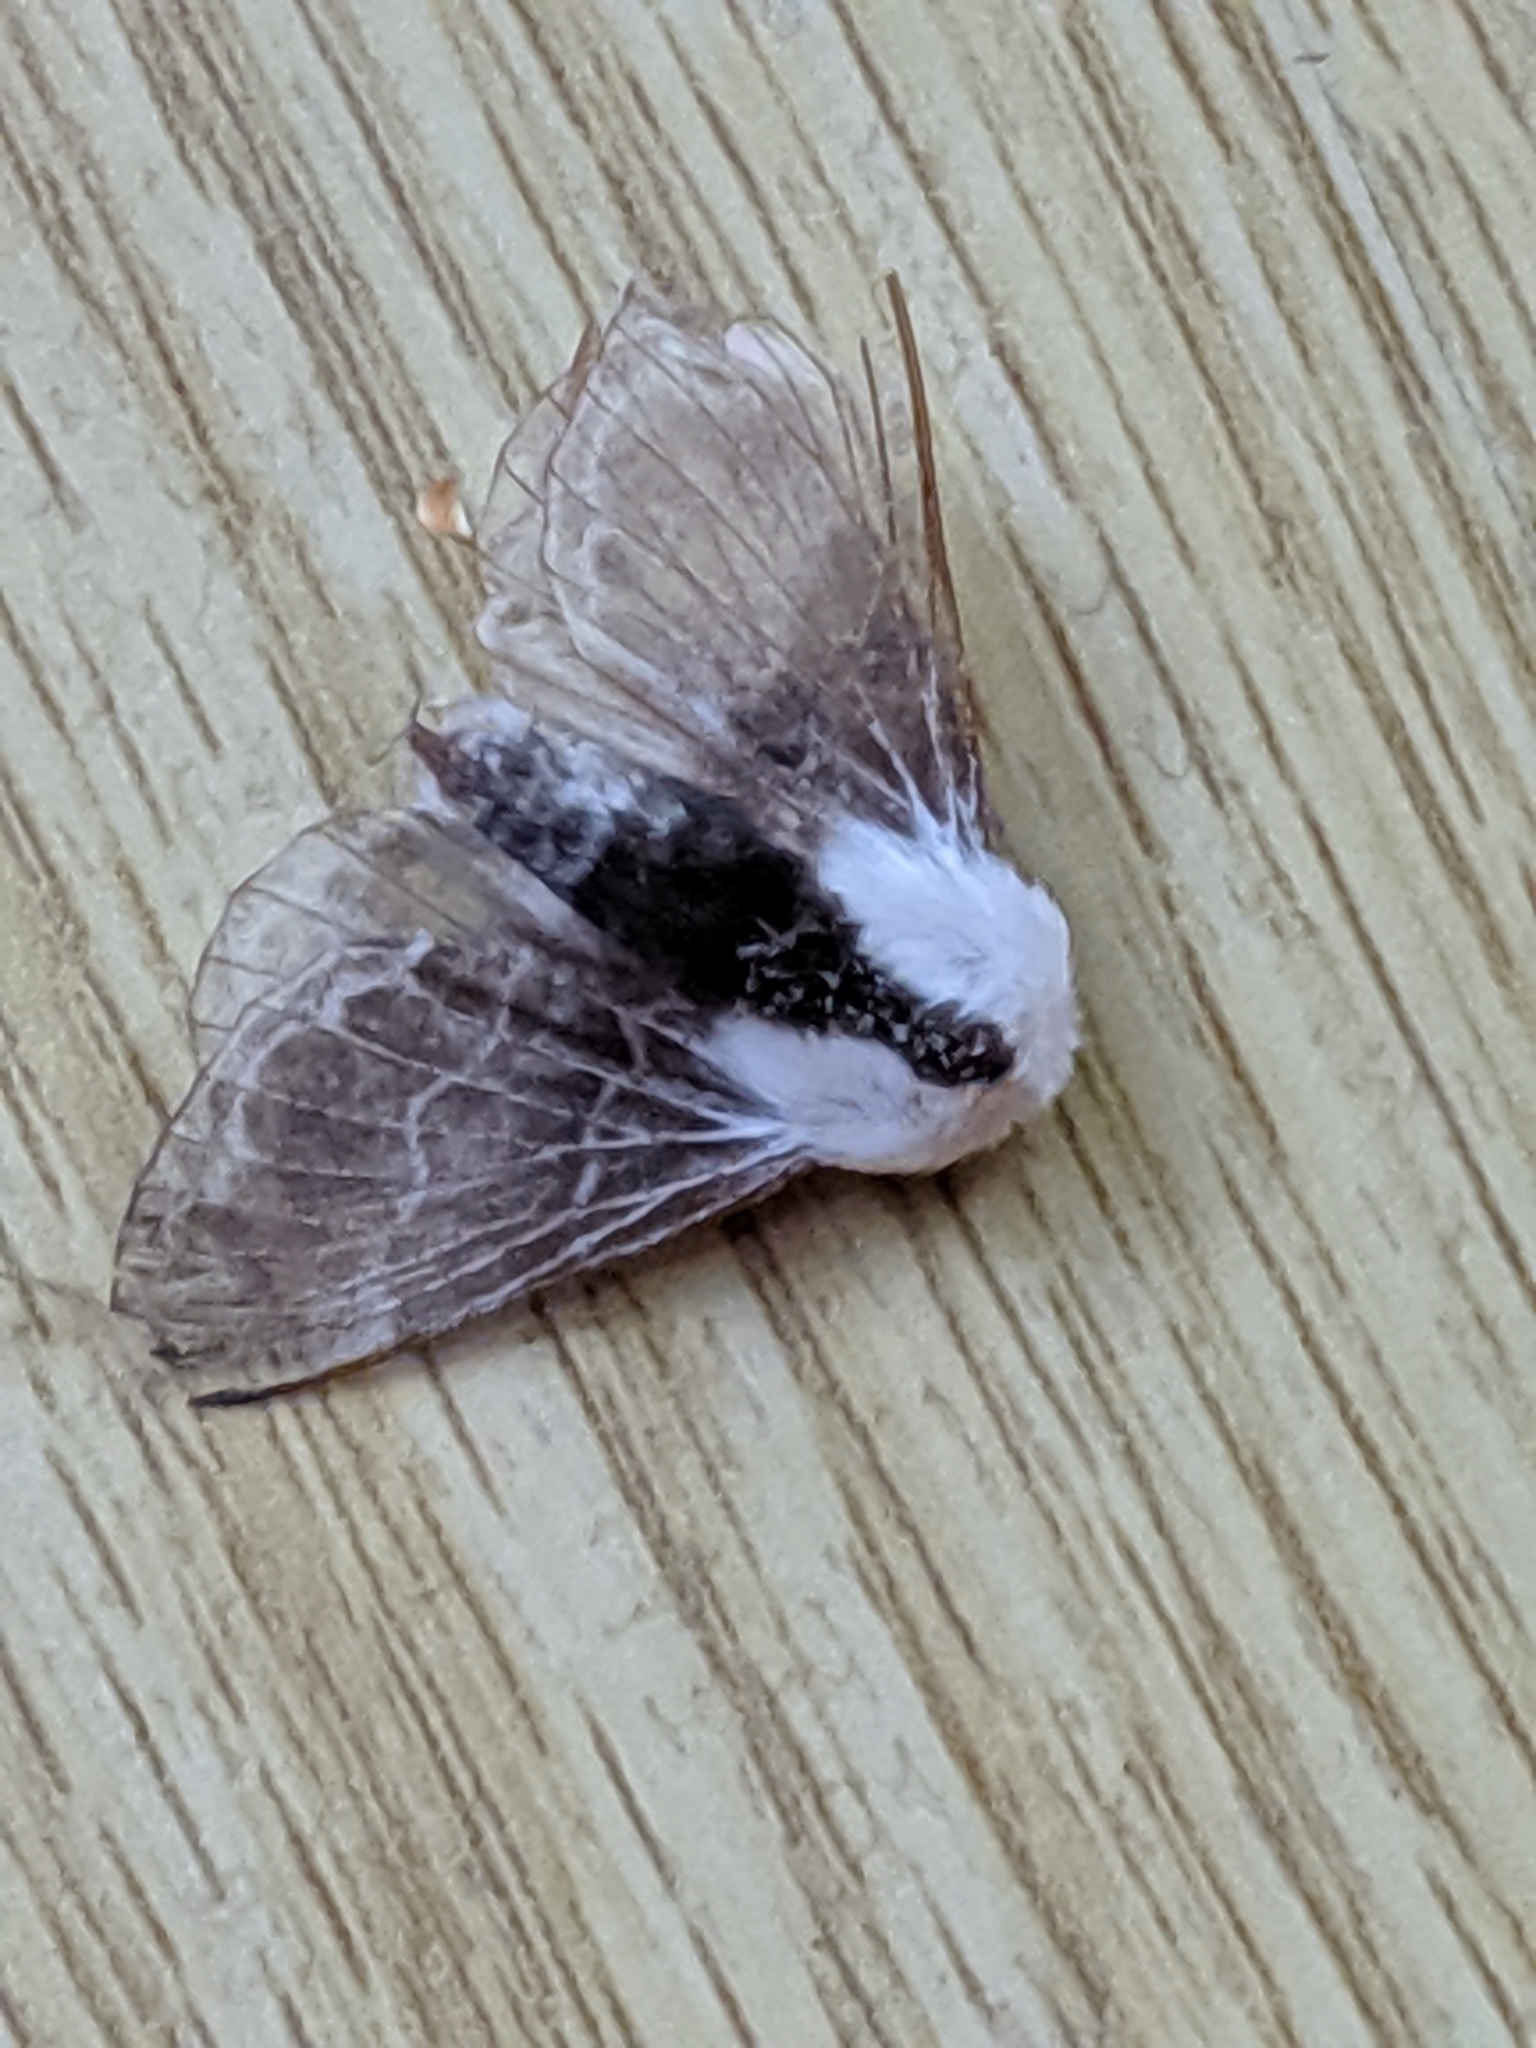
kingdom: Animalia
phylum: Arthropoda
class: Insecta
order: Lepidoptera
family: Lasiocampidae
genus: Tolype
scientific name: Tolype velleda
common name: Large tolype moth
